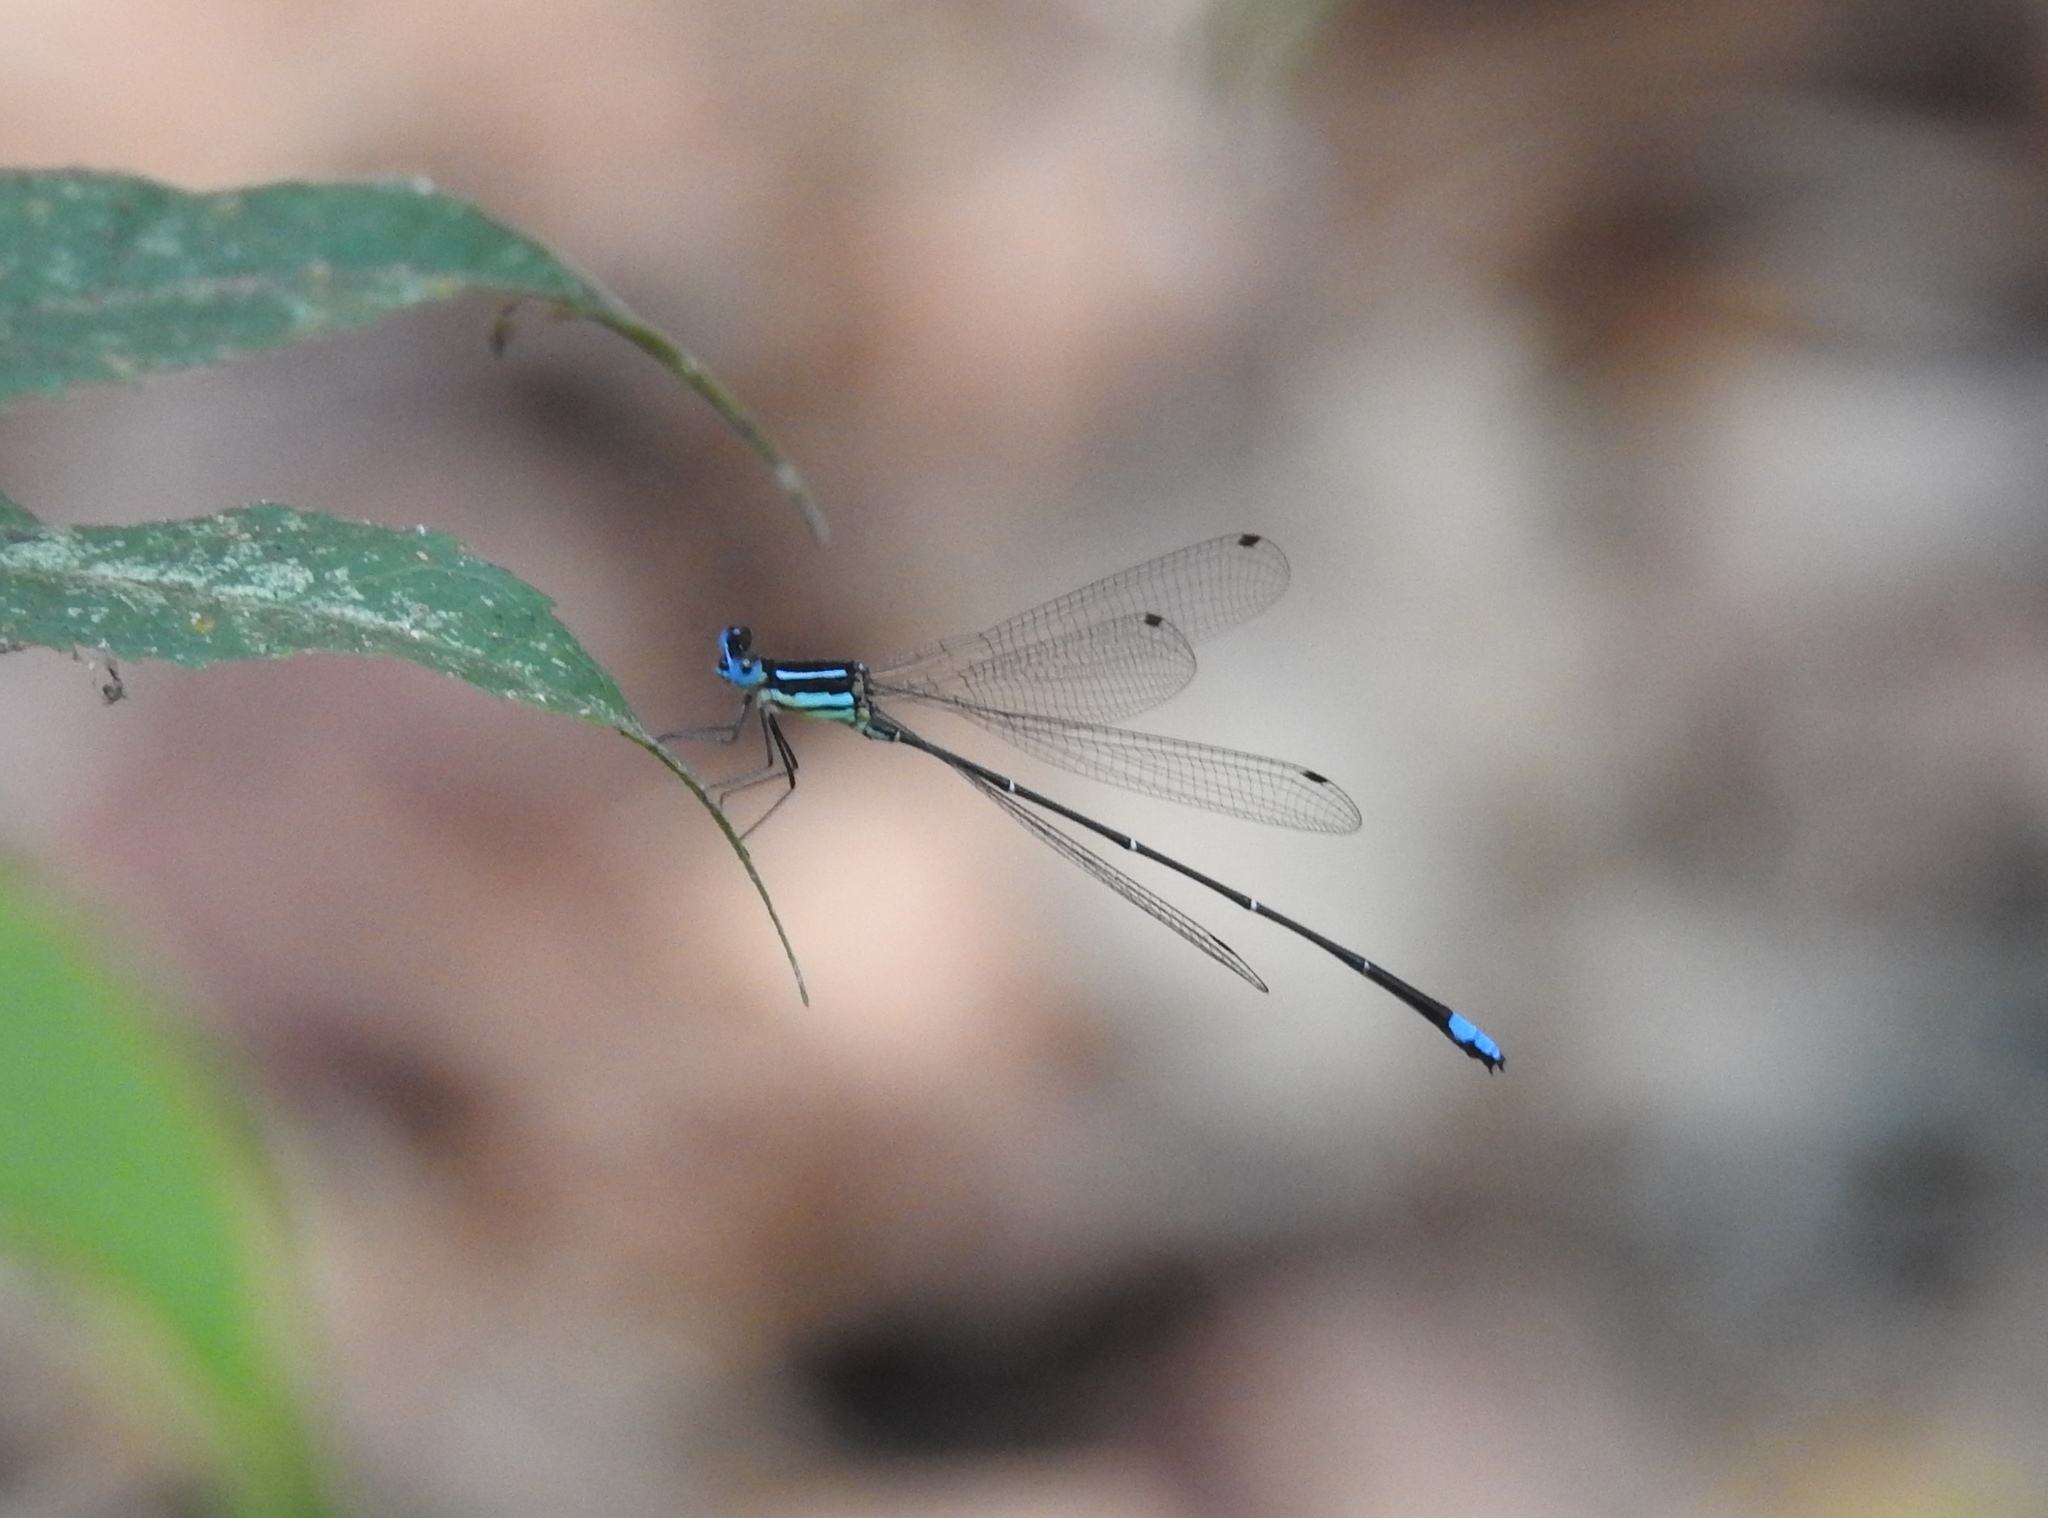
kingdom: Animalia
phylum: Arthropoda
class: Insecta
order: Odonata
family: Platycnemididae
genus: Caconeura
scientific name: Caconeura ramburi
